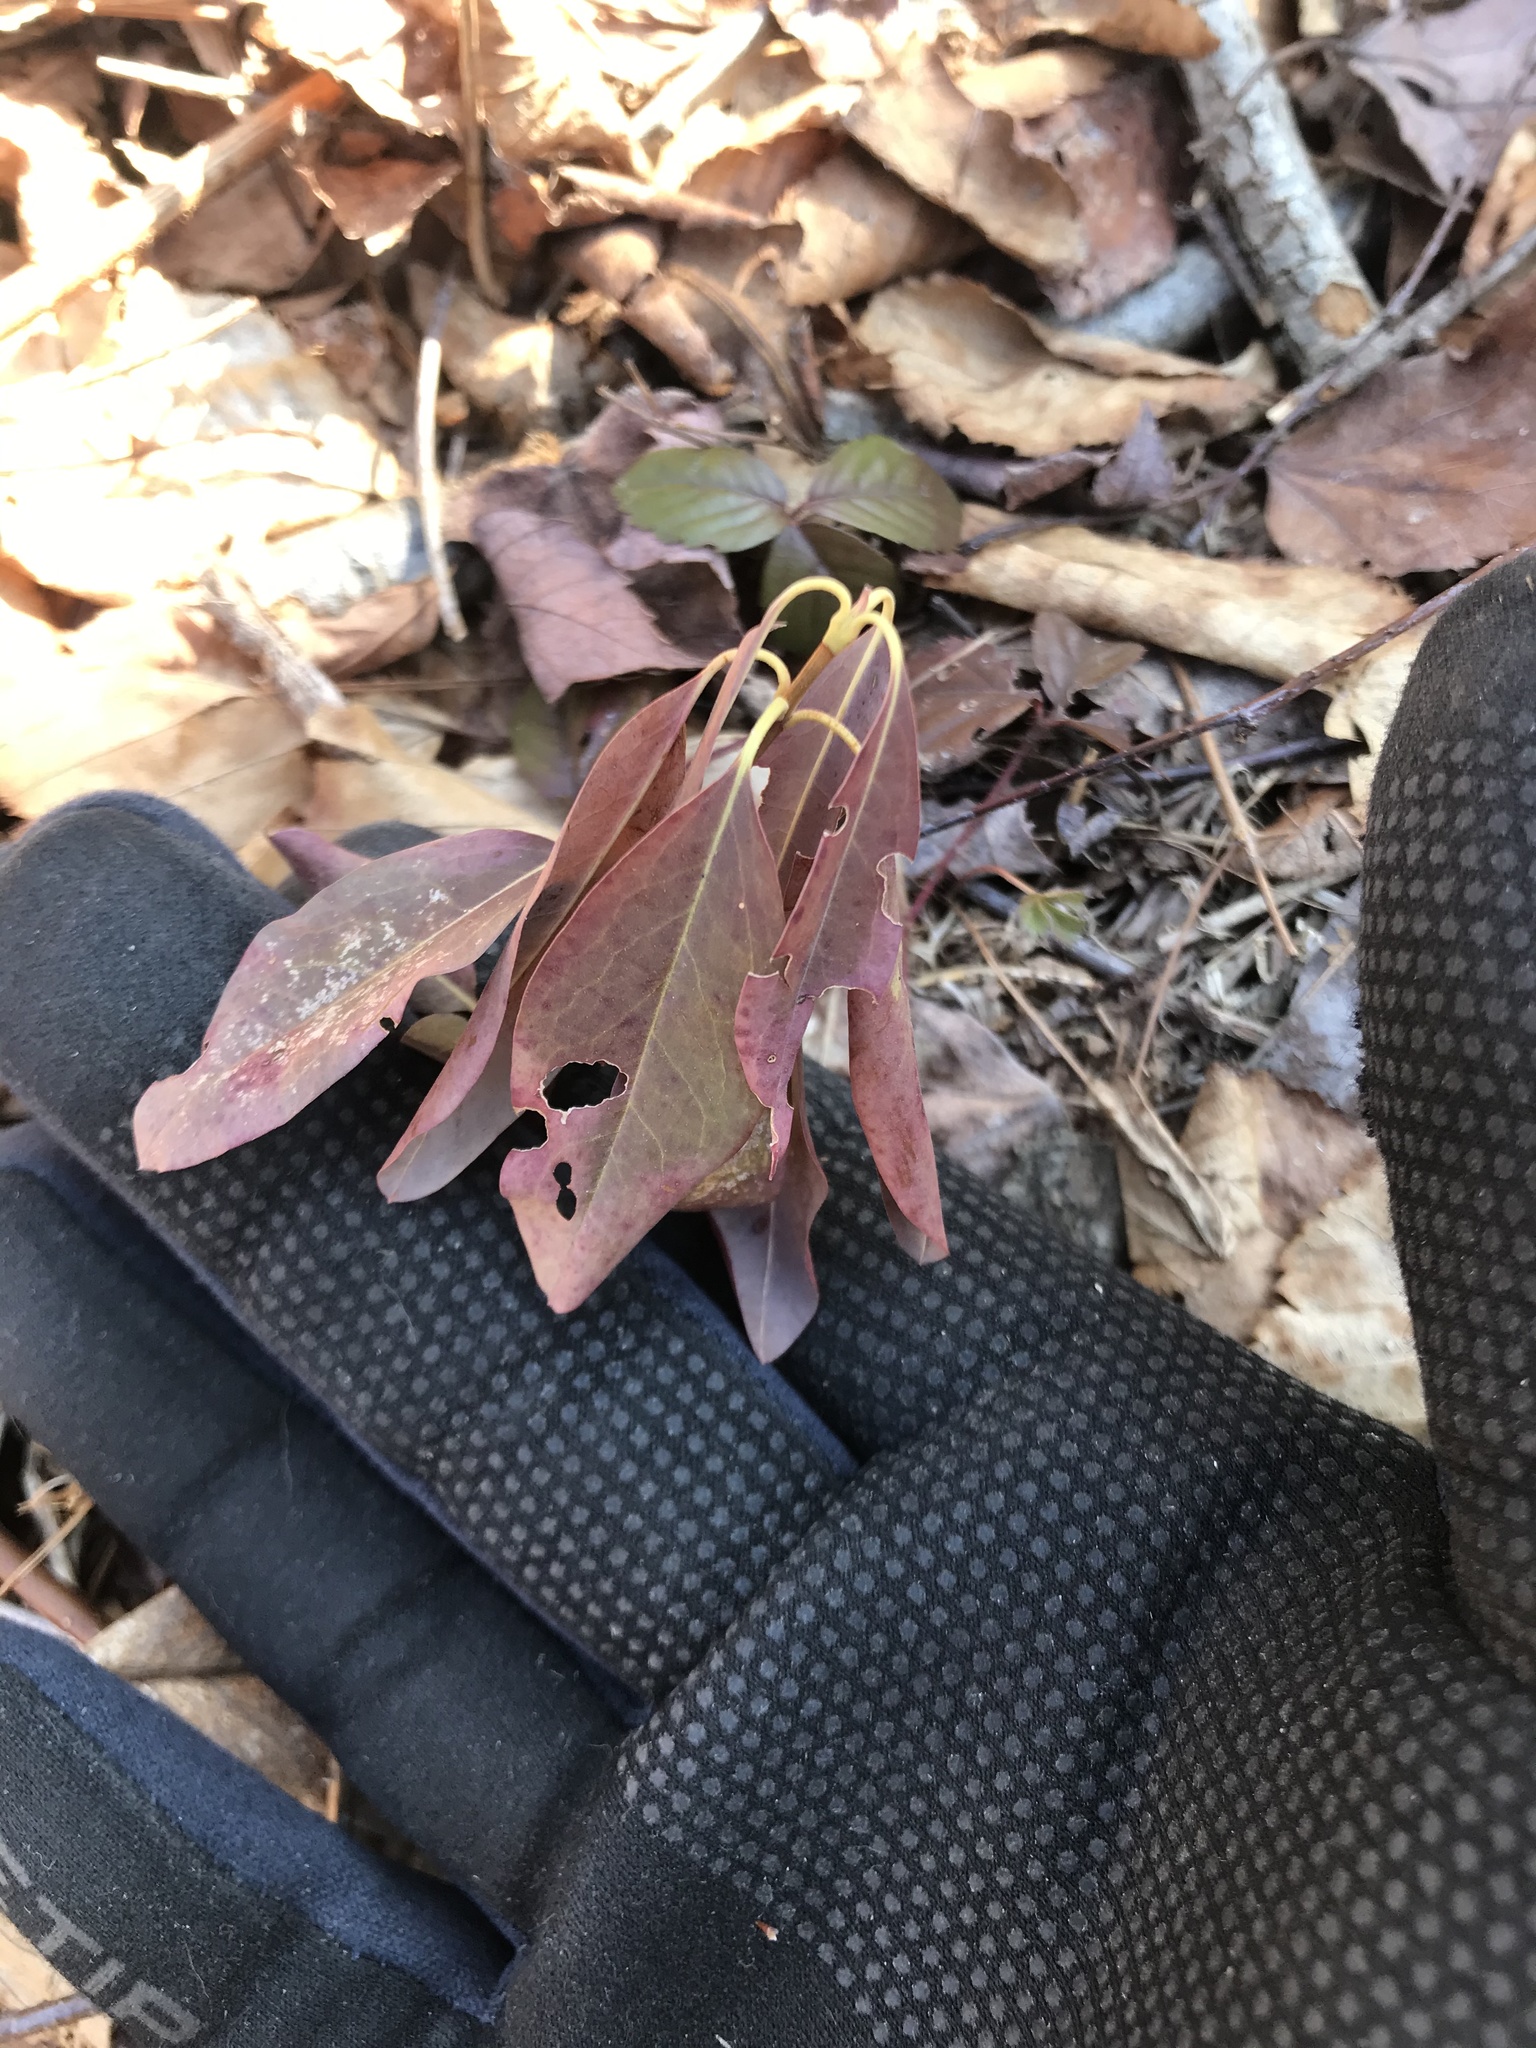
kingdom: Plantae
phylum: Tracheophyta
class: Magnoliopsida
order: Ericales
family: Ericaceae
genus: Kalmia
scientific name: Kalmia angustifolia
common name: Sheep-laurel
